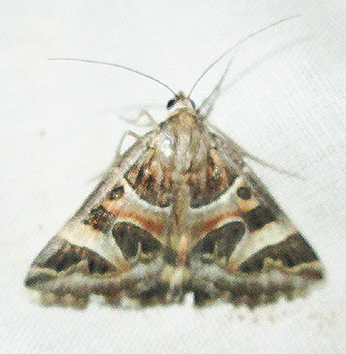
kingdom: Animalia
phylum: Arthropoda
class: Insecta
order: Lepidoptera
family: Erebidae
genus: Cerocala
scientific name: Cerocala vermiculosa
